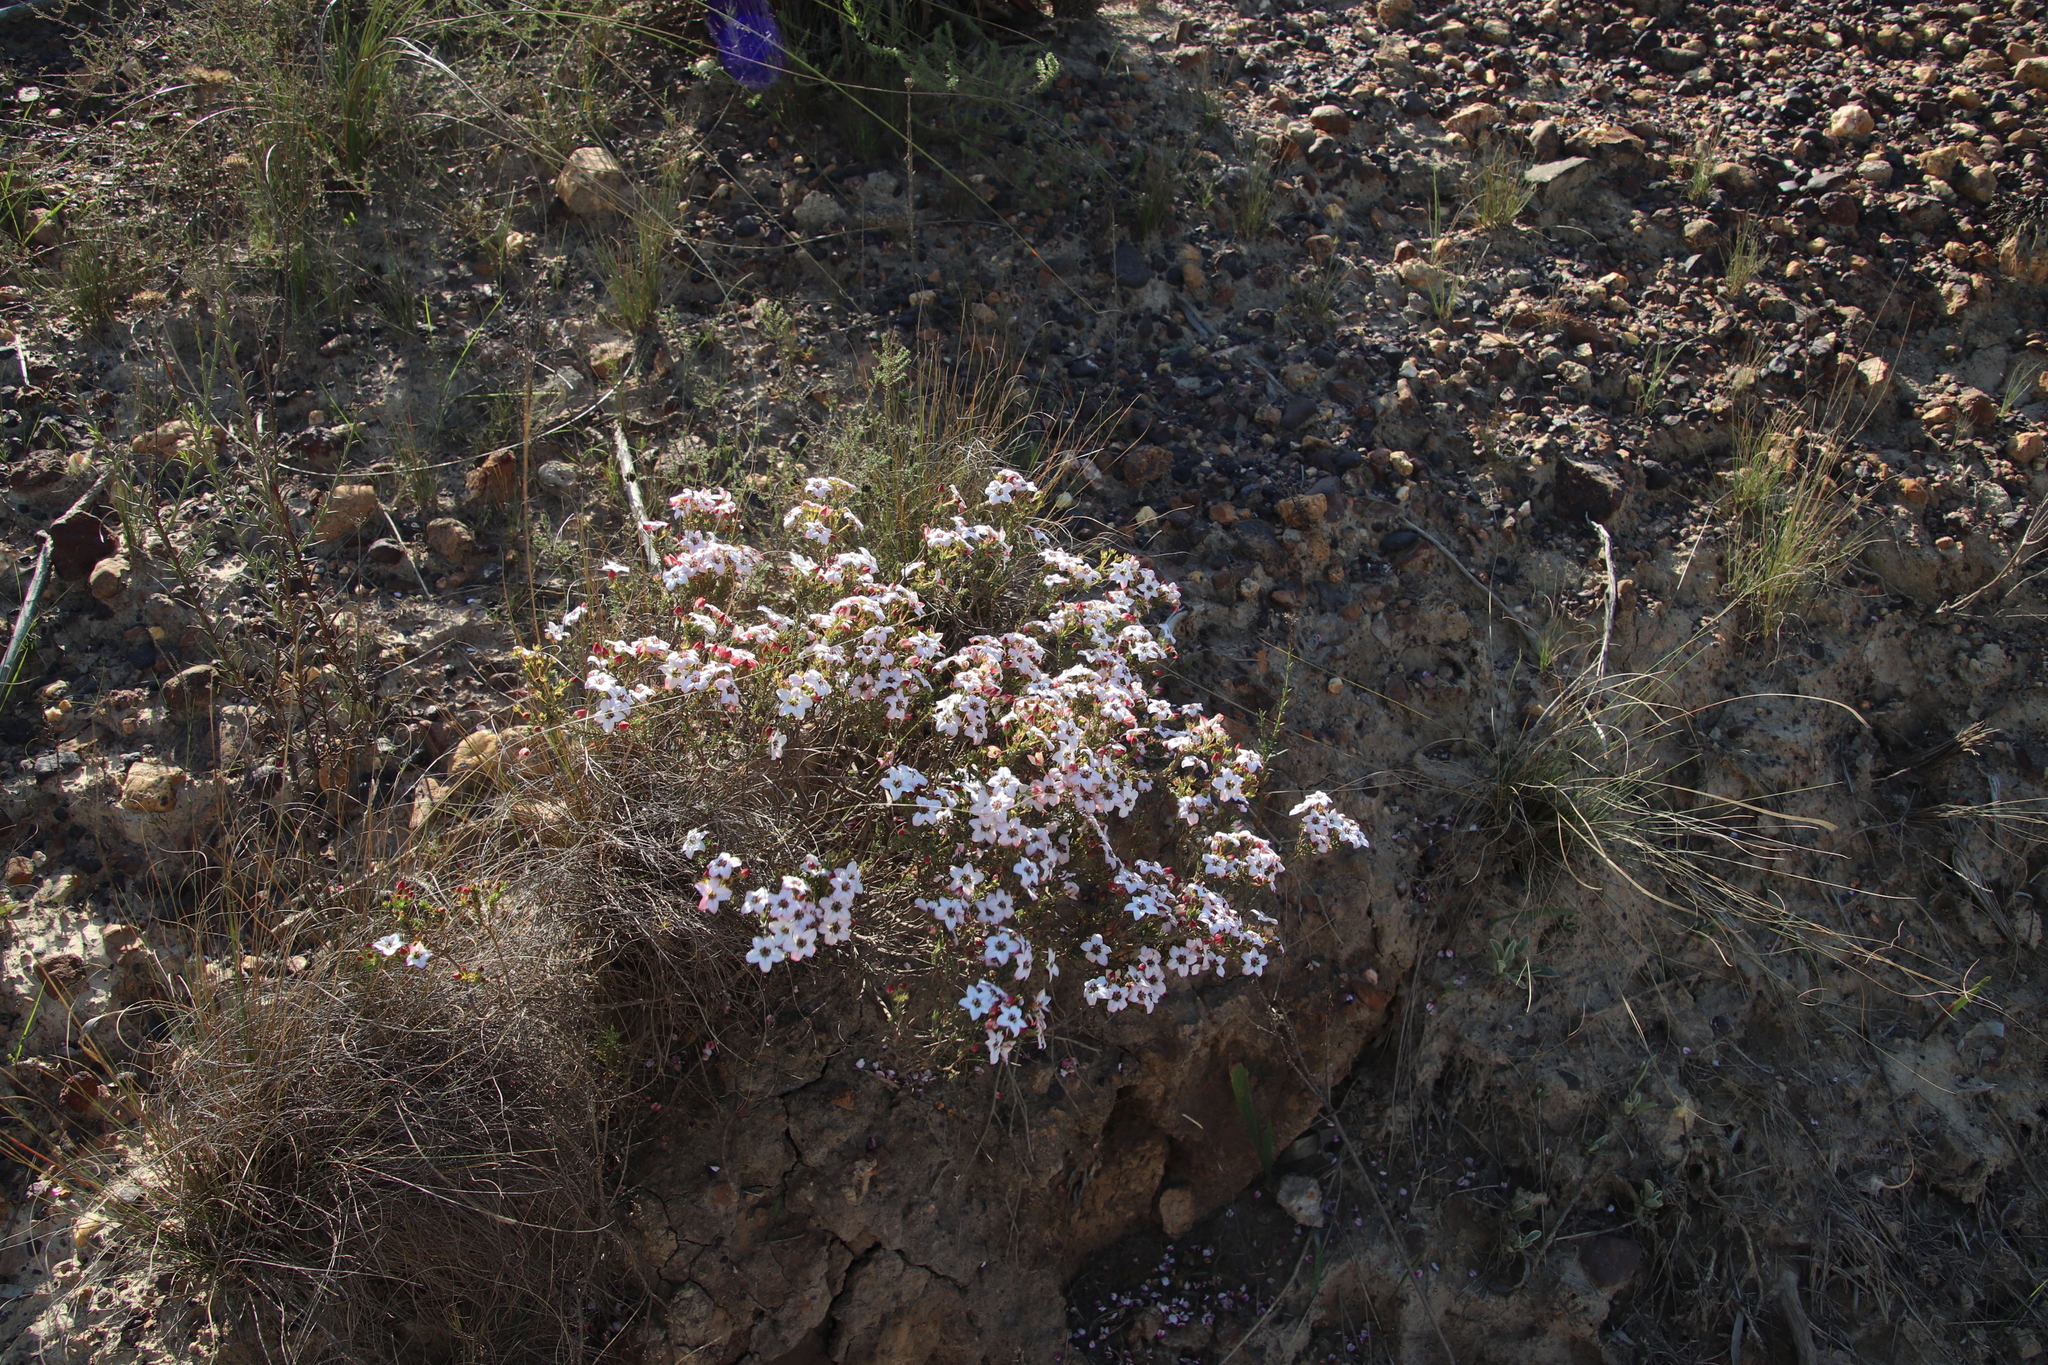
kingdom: Plantae
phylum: Tracheophyta
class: Magnoliopsida
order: Sapindales
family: Rutaceae
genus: Adenandra
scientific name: Adenandra multiflora
